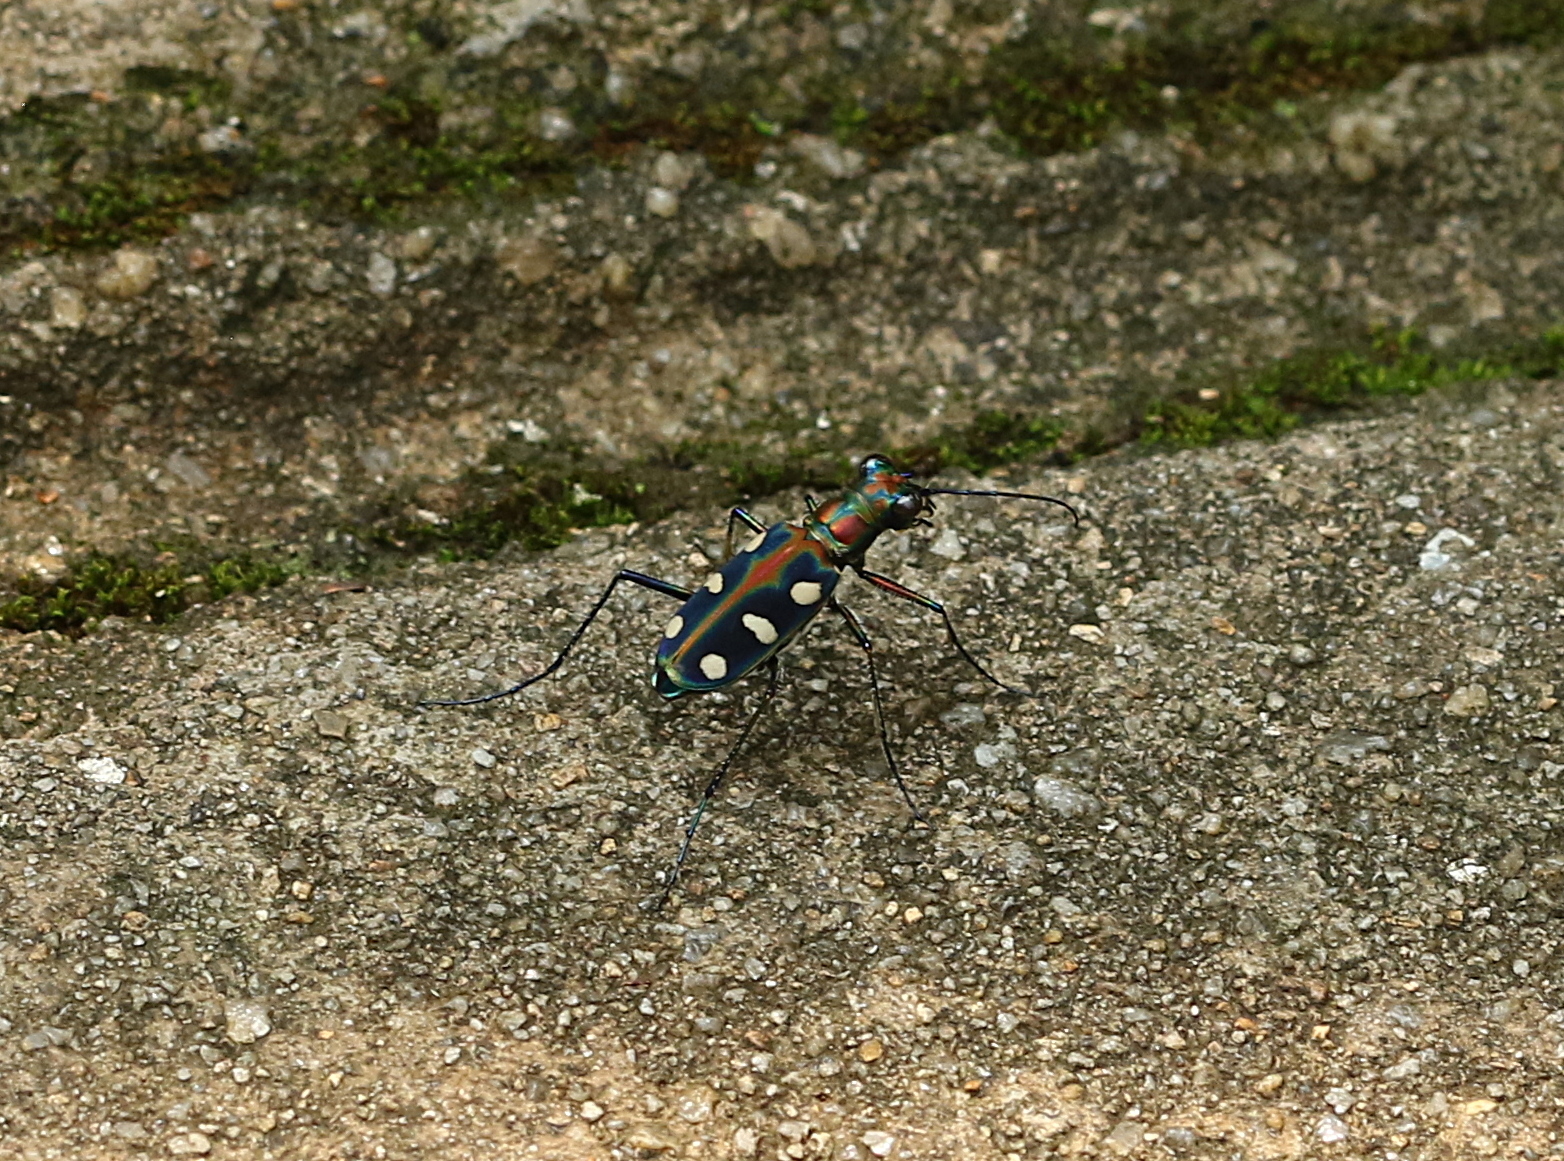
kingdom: Animalia
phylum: Arthropoda
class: Insecta
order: Coleoptera
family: Carabidae
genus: Cicindela
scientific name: Cicindela aurulenta
